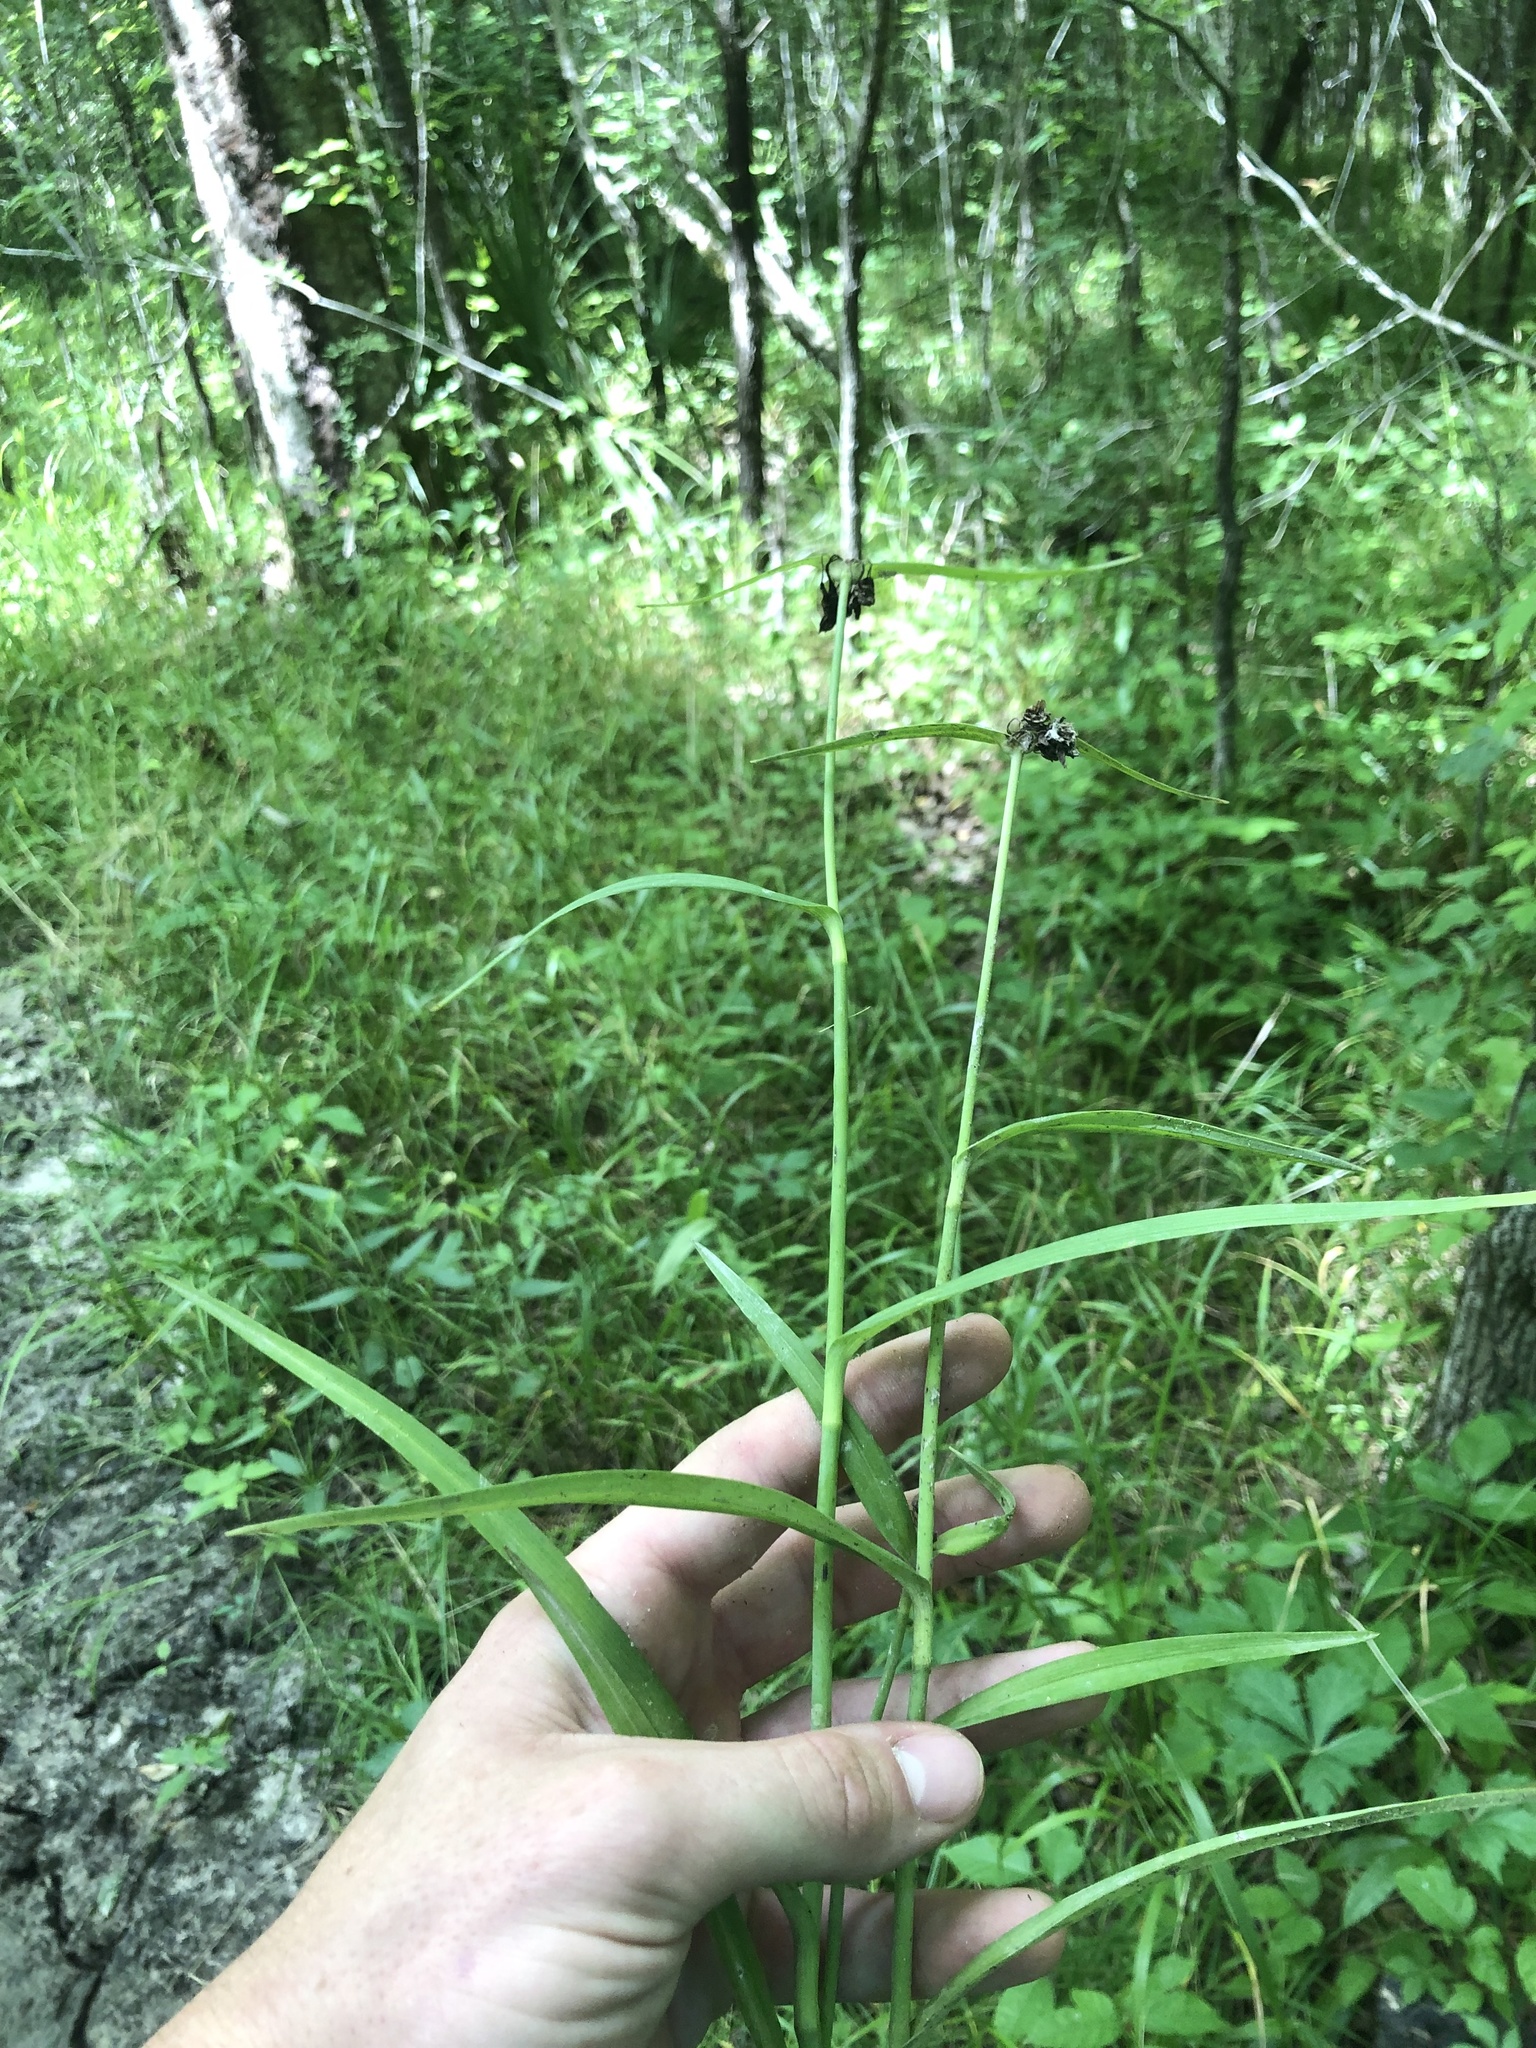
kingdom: Plantae
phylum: Tracheophyta
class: Liliopsida
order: Commelinales
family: Commelinaceae
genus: Tradescantia
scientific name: Tradescantia ohiensis
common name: Ohio spiderwort
